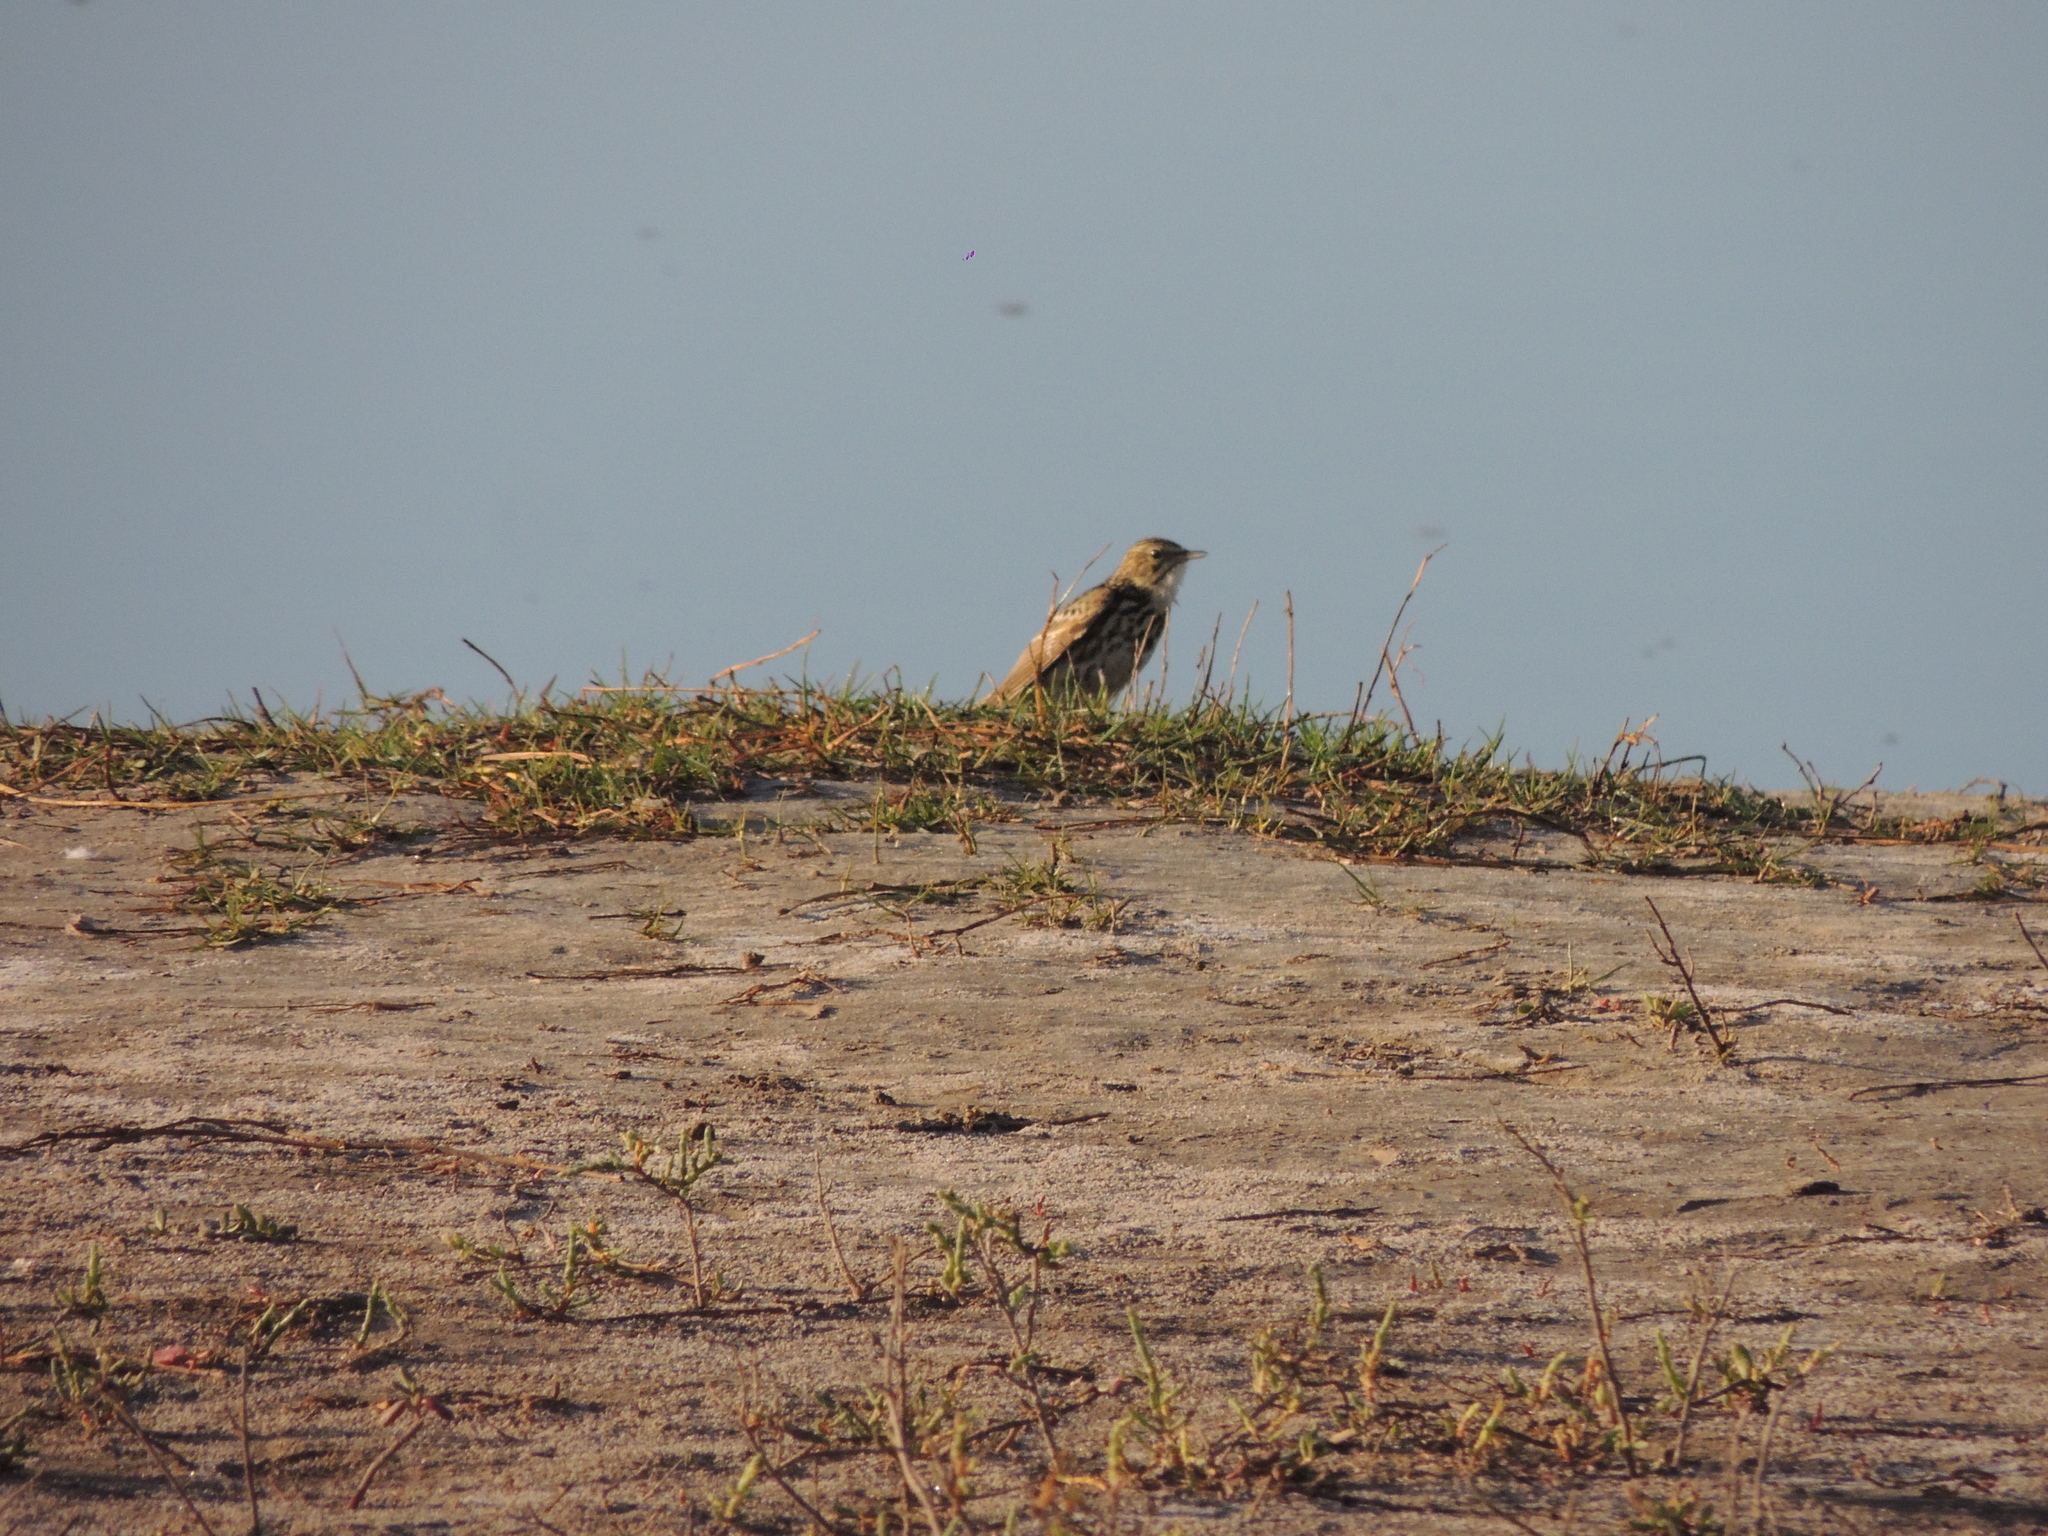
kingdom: Animalia
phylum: Chordata
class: Aves
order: Passeriformes
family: Motacillidae
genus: Anthus
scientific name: Anthus correndera
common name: Correndera pipit
